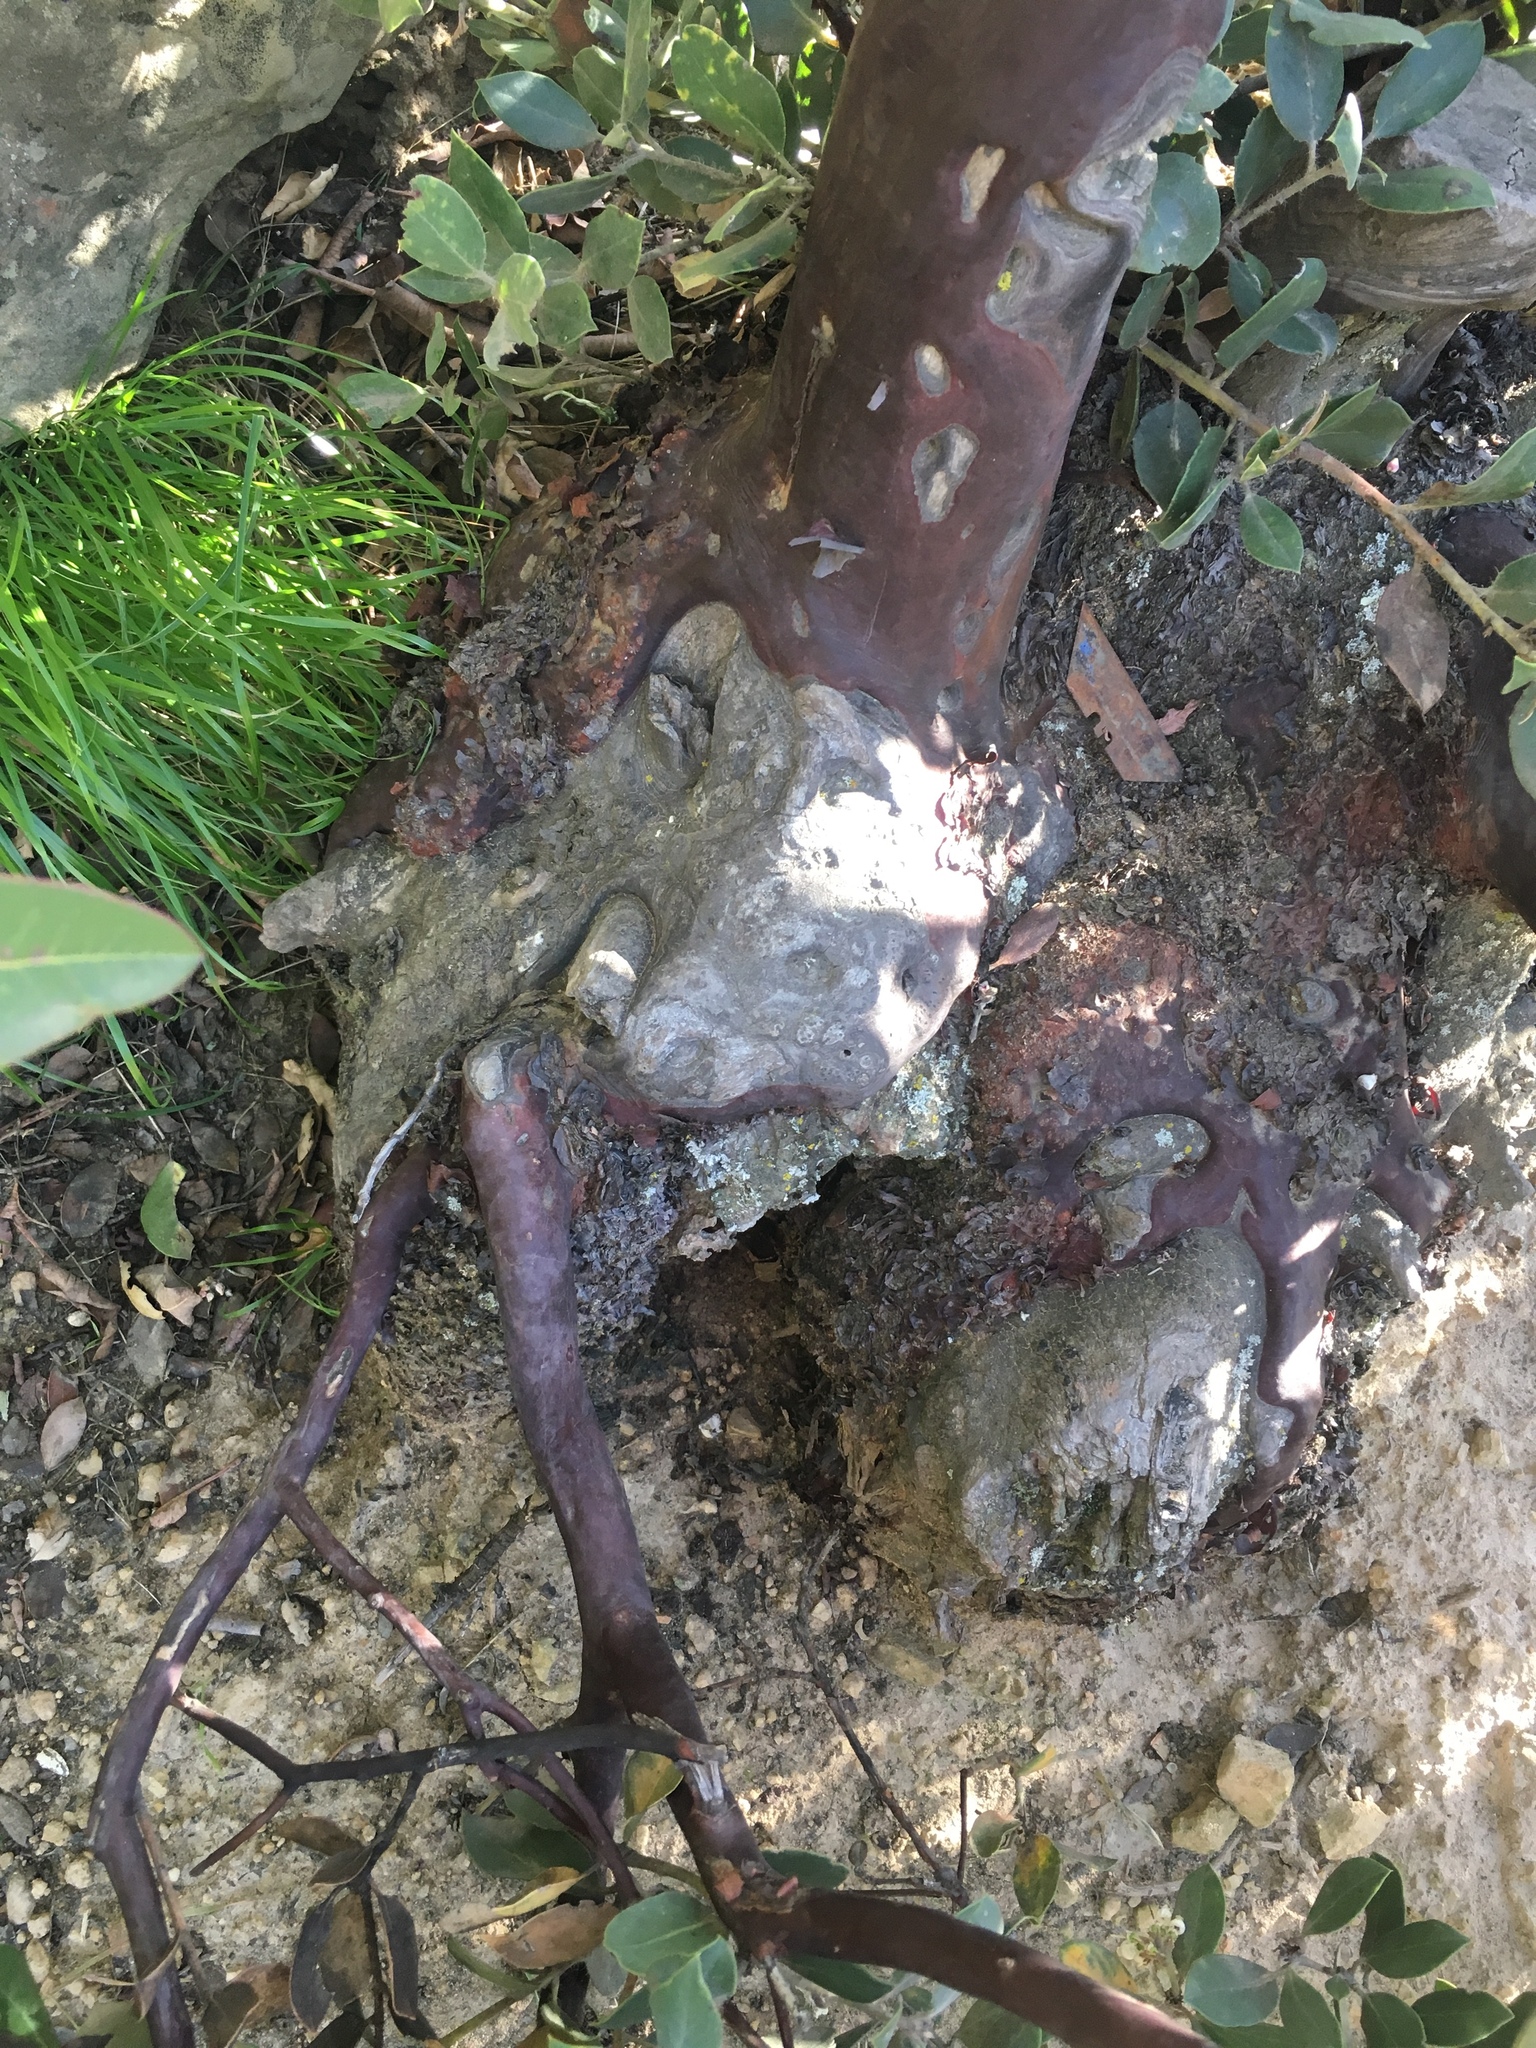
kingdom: Plantae
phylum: Tracheophyta
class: Magnoliopsida
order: Ericales
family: Ericaceae
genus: Arctostaphylos
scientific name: Arctostaphylos glandulosa
